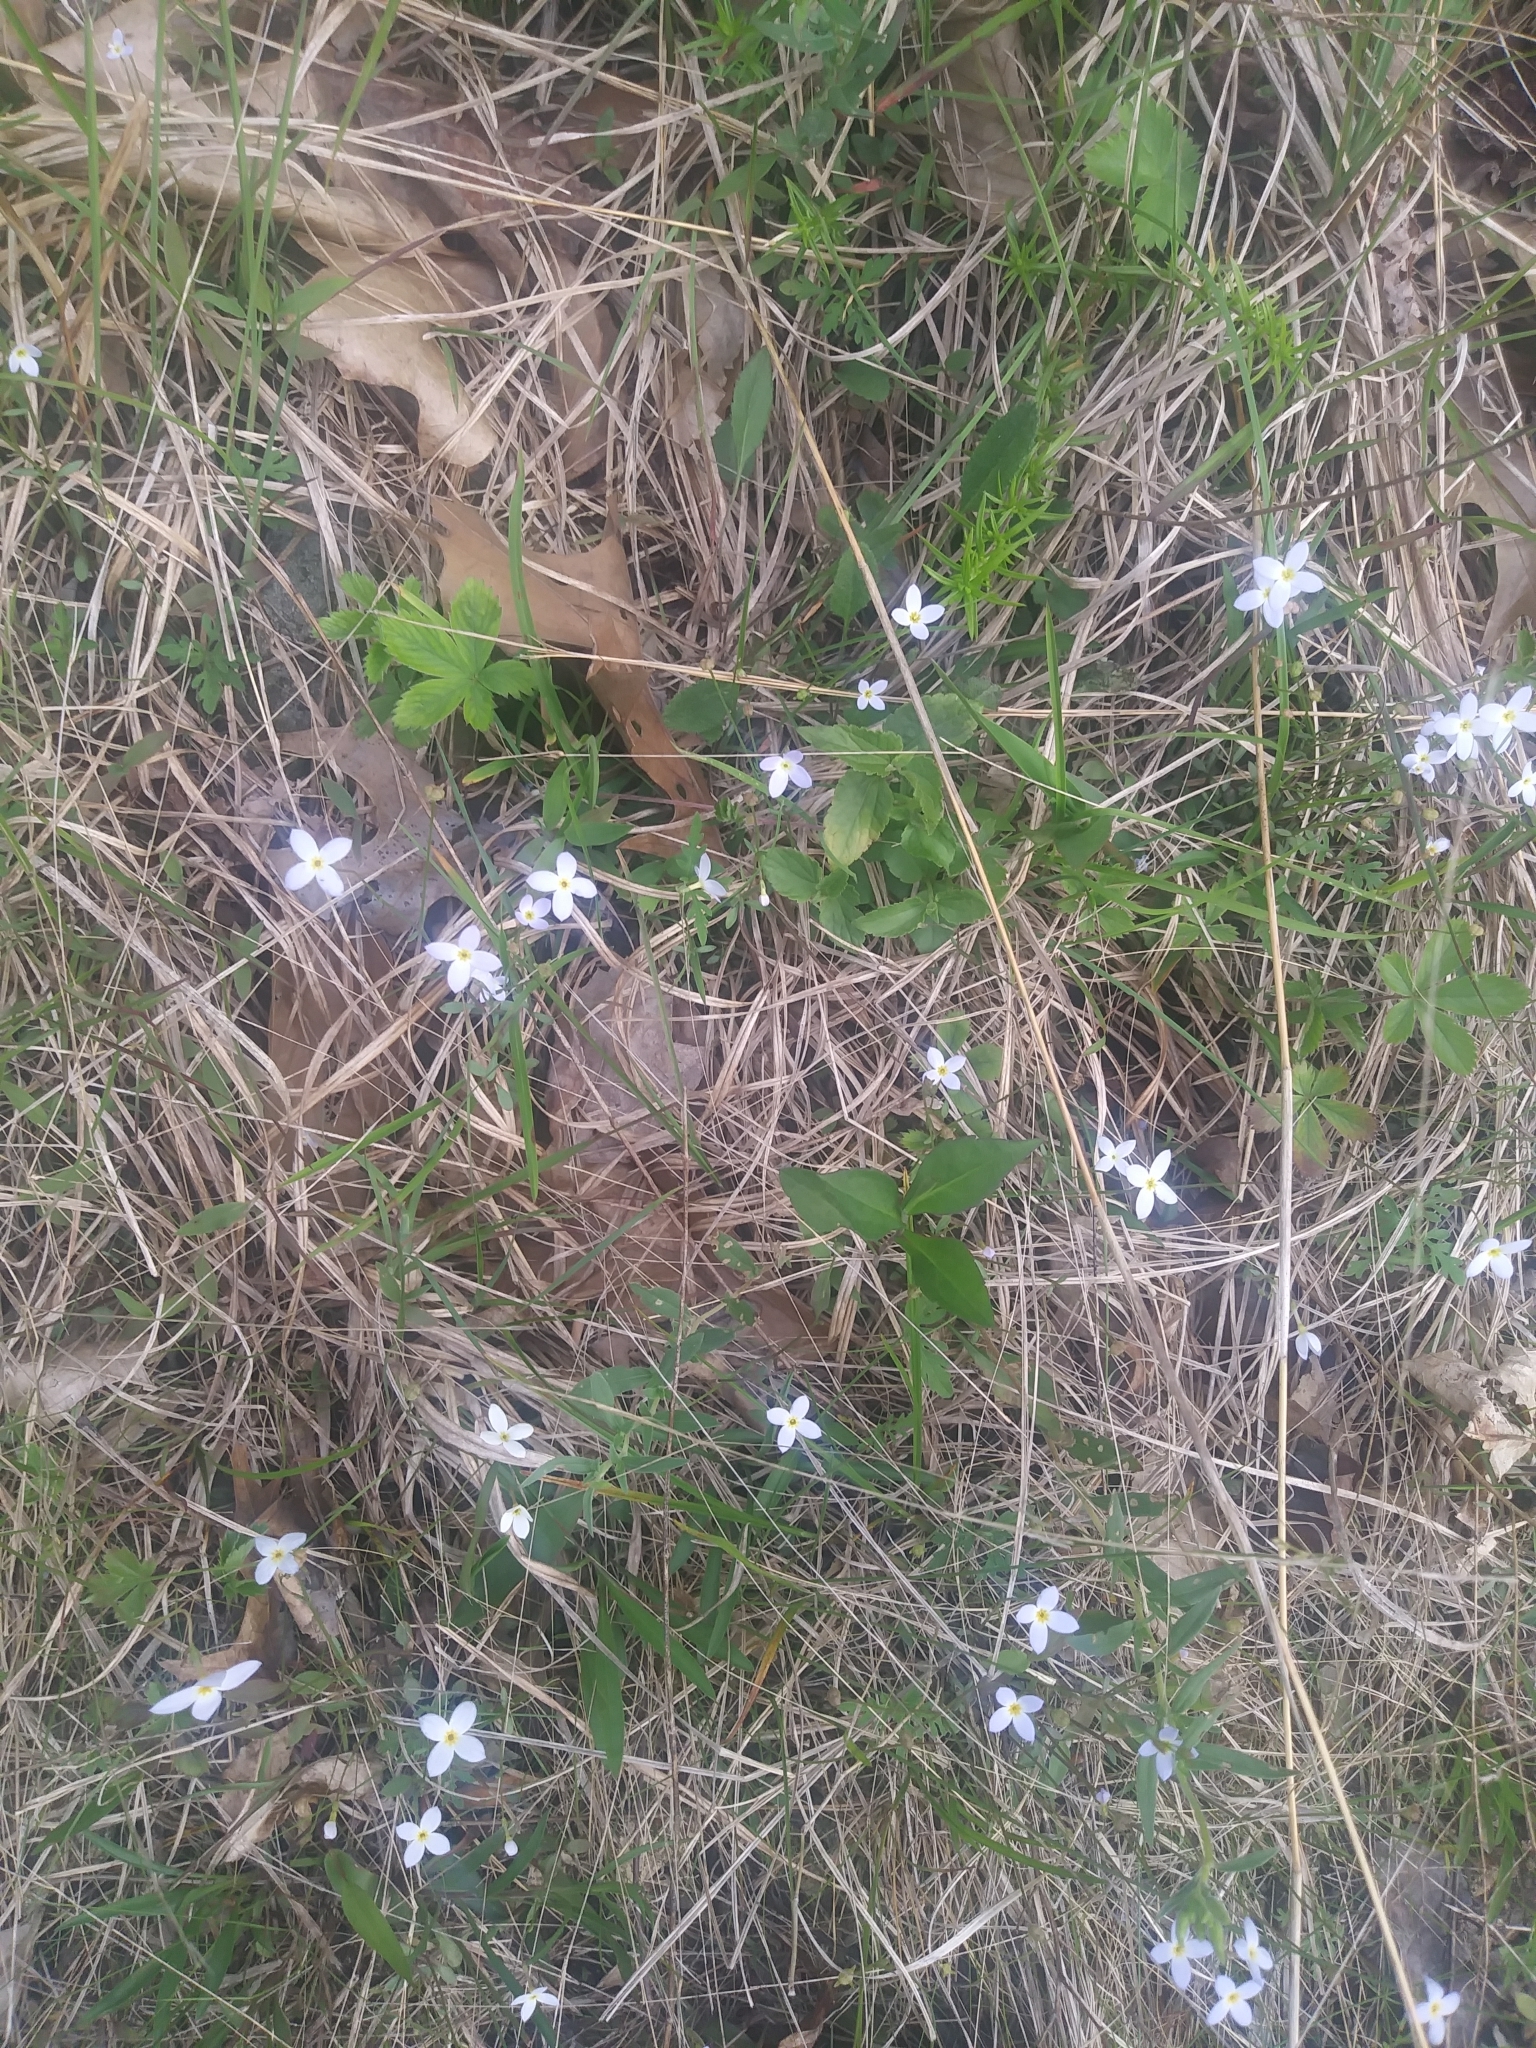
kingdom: Plantae
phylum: Tracheophyta
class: Magnoliopsida
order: Gentianales
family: Rubiaceae
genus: Houstonia
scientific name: Houstonia caerulea
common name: Bluets
